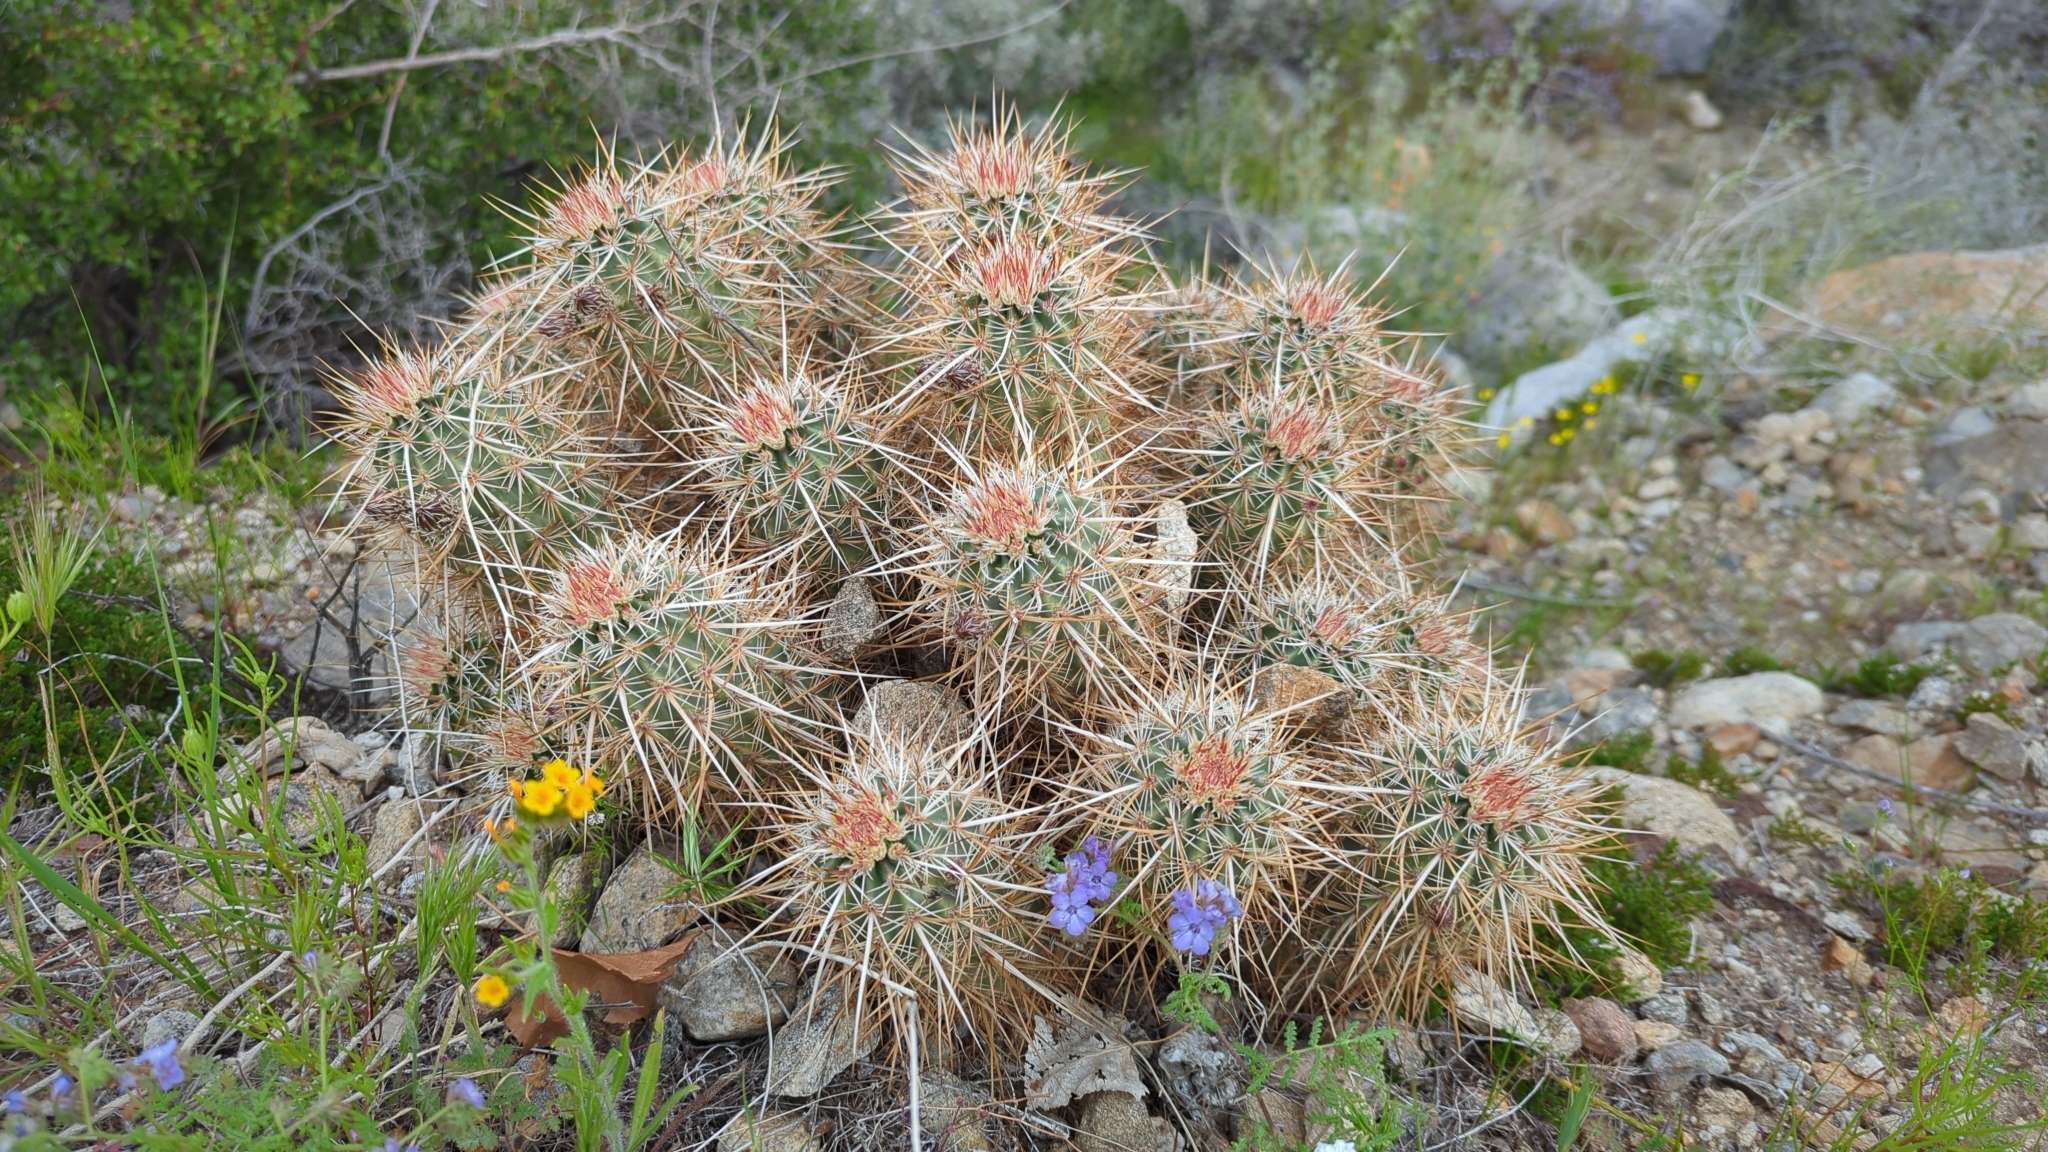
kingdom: Plantae
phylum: Tracheophyta
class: Magnoliopsida
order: Caryophyllales
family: Cactaceae
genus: Echinocereus
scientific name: Echinocereus engelmannii
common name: Engelmann's hedgehog cactus
